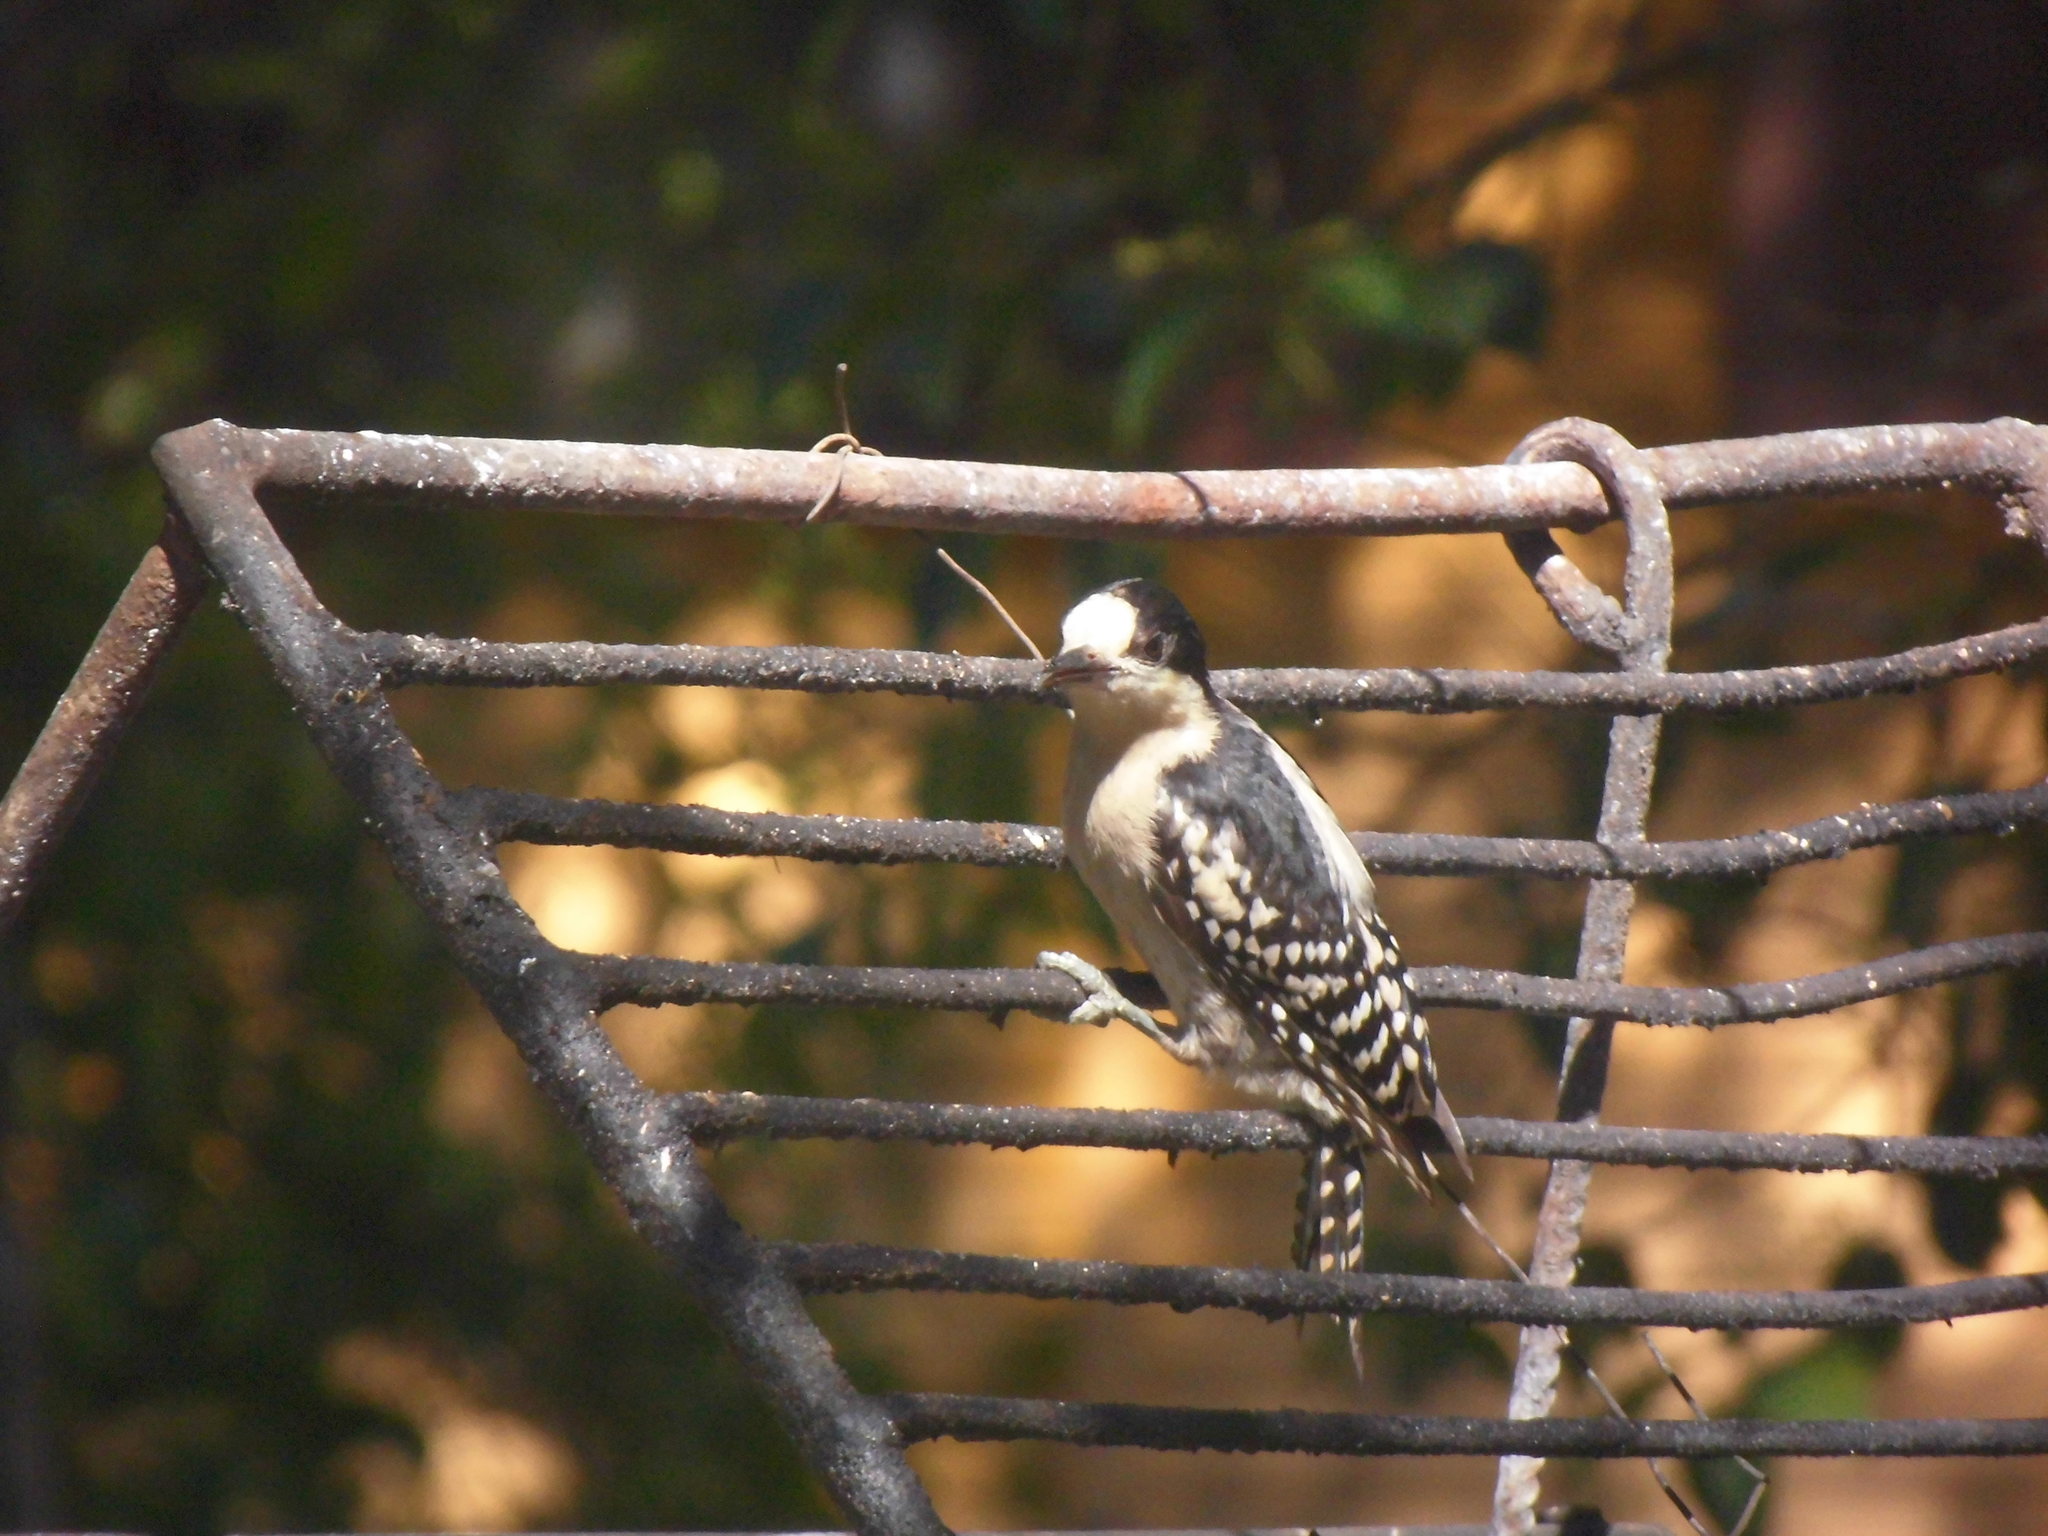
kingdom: Animalia
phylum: Chordata
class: Aves
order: Piciformes
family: Picidae
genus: Melanerpes
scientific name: Melanerpes cactorum
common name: White-fronted woodpecker
